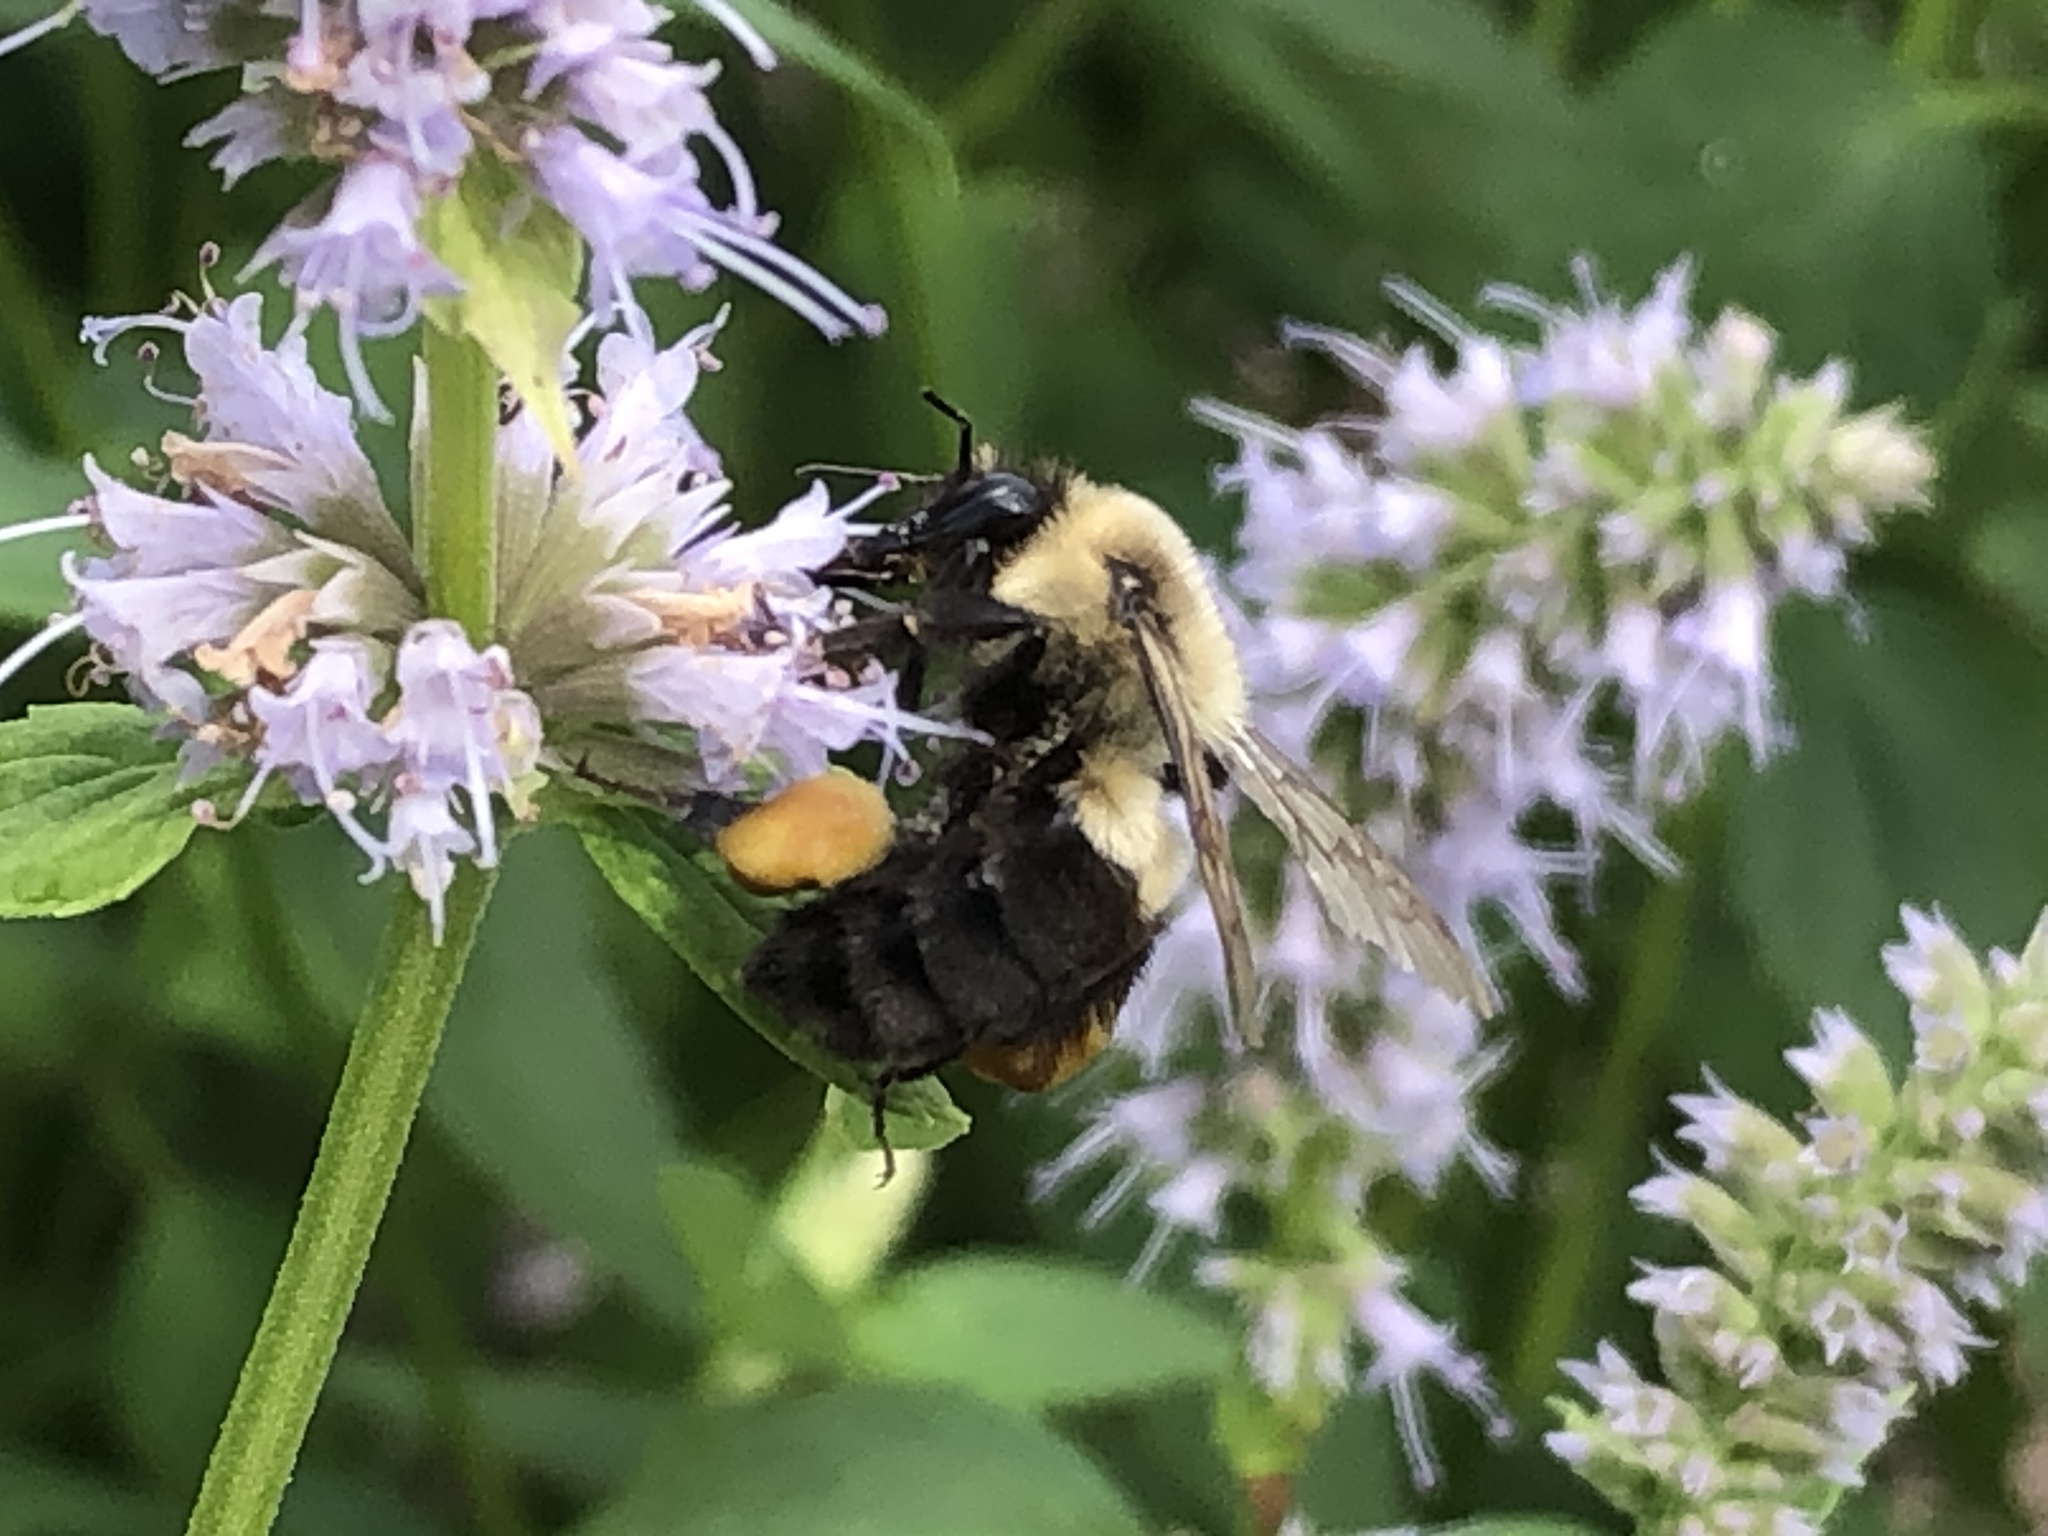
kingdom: Animalia
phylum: Arthropoda
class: Insecta
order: Hymenoptera
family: Apidae
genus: Bombus
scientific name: Bombus impatiens
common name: Common eastern bumble bee
